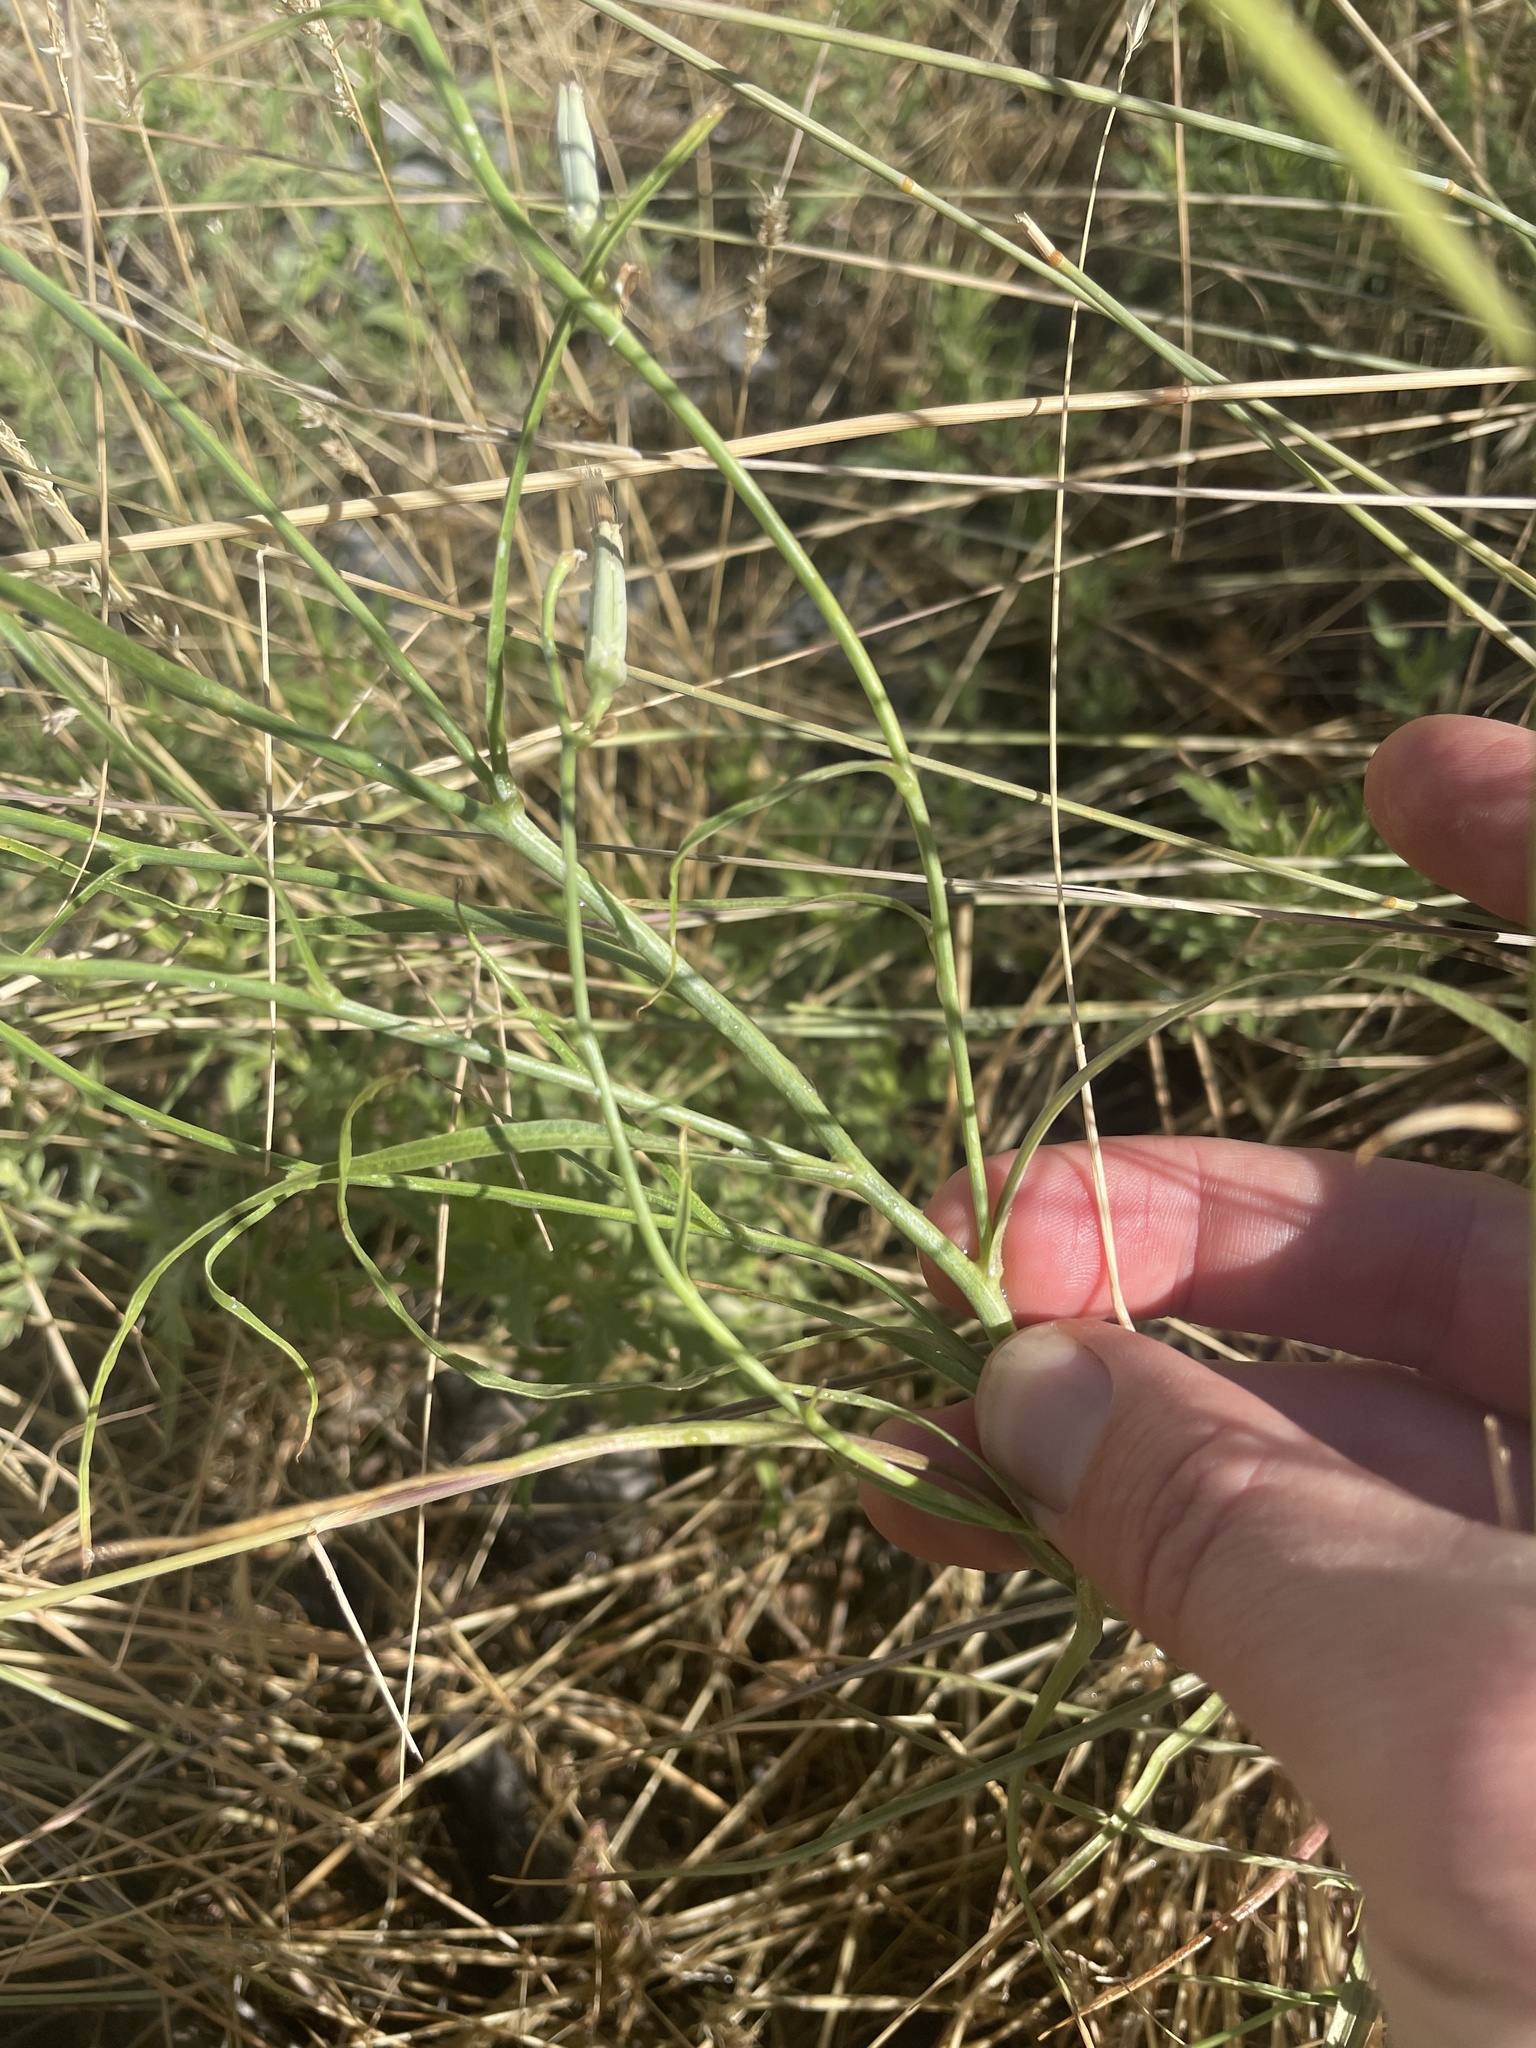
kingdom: Plantae
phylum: Tracheophyta
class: Magnoliopsida
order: Asterales
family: Asteraceae
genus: Lygodesmia
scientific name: Lygodesmia juncea
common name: Common skeletonweed
